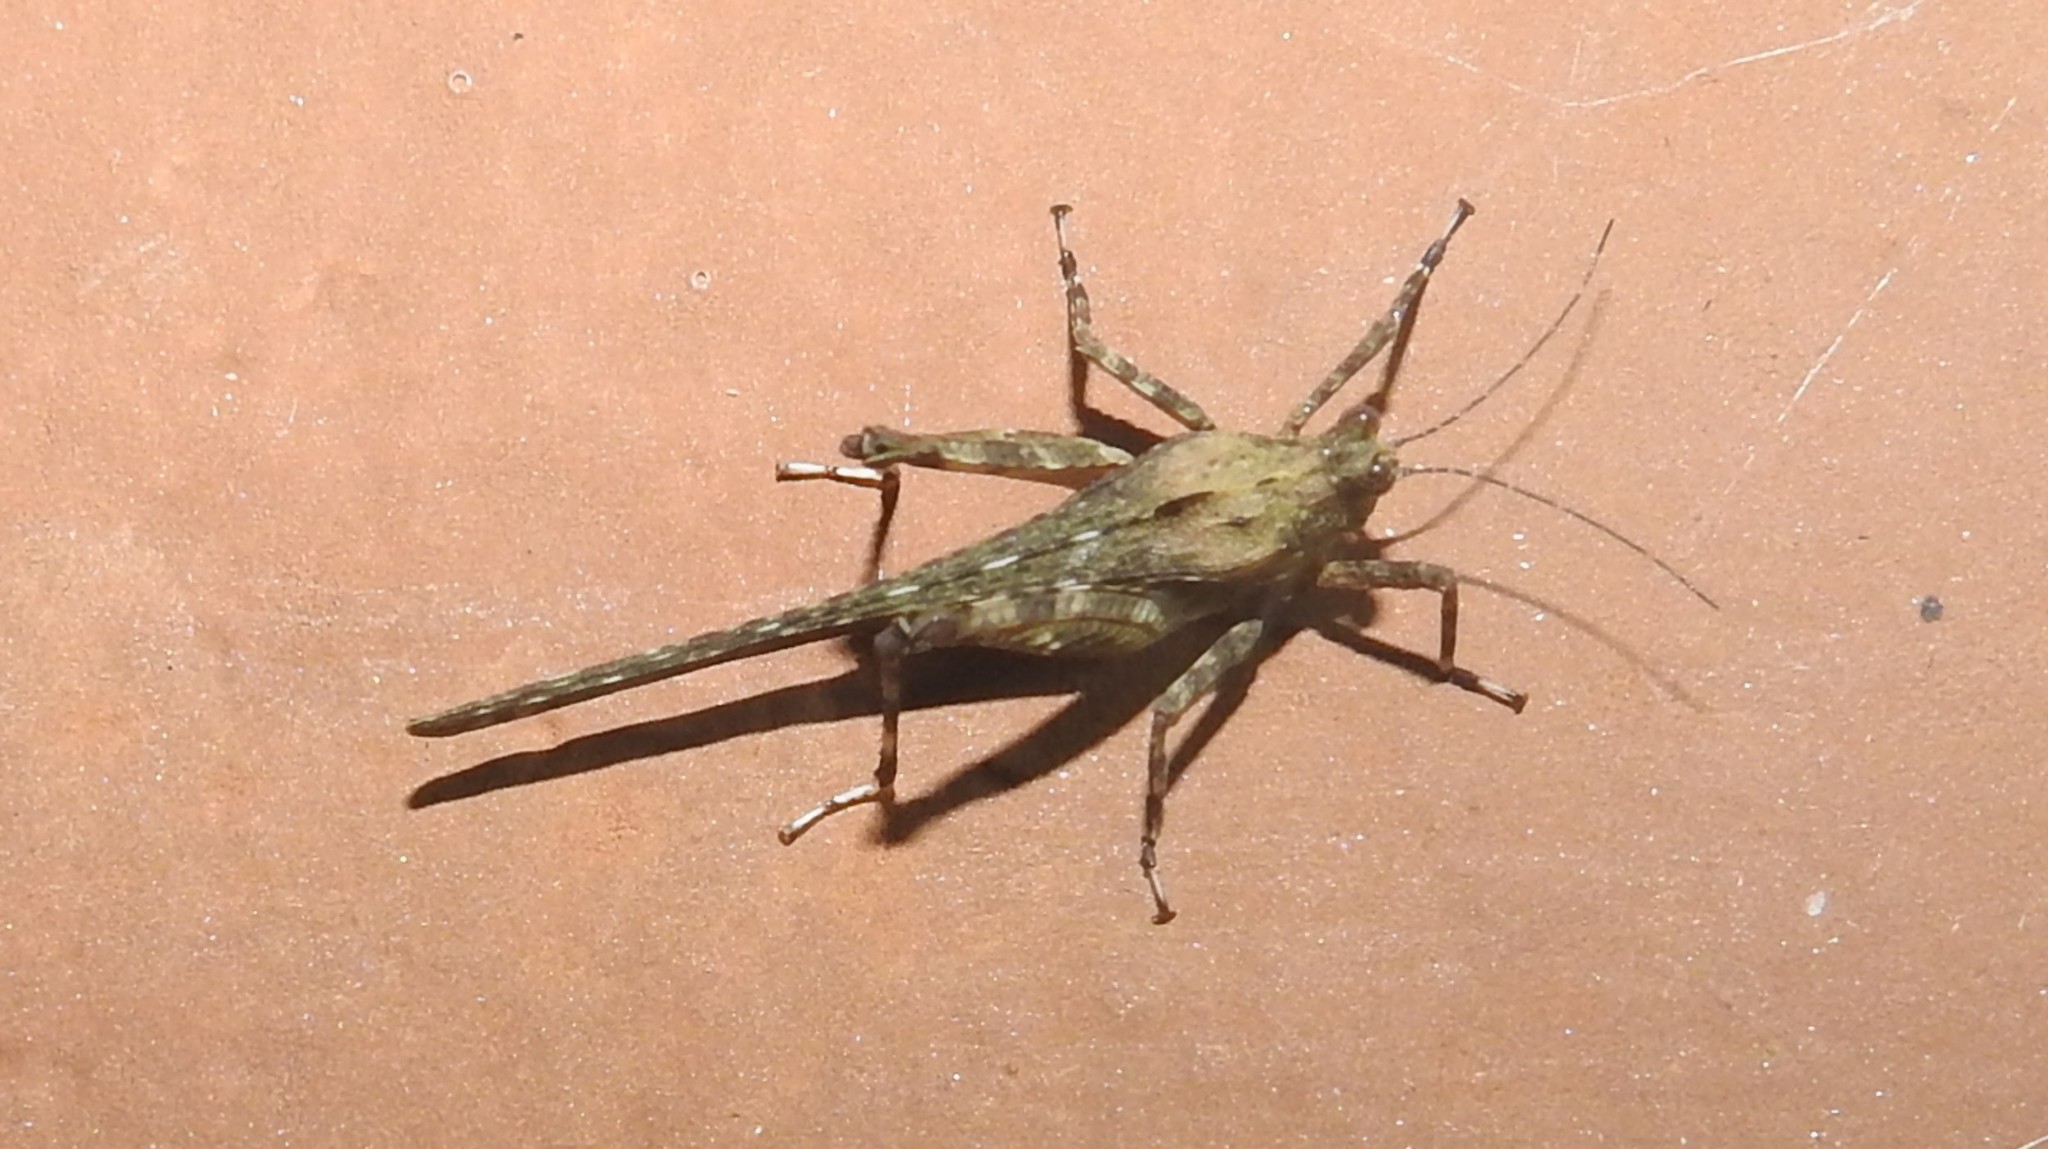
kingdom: Animalia
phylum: Arthropoda
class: Insecta
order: Orthoptera
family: Tetrigidae
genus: Xistrella
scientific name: Xistrella stylata
